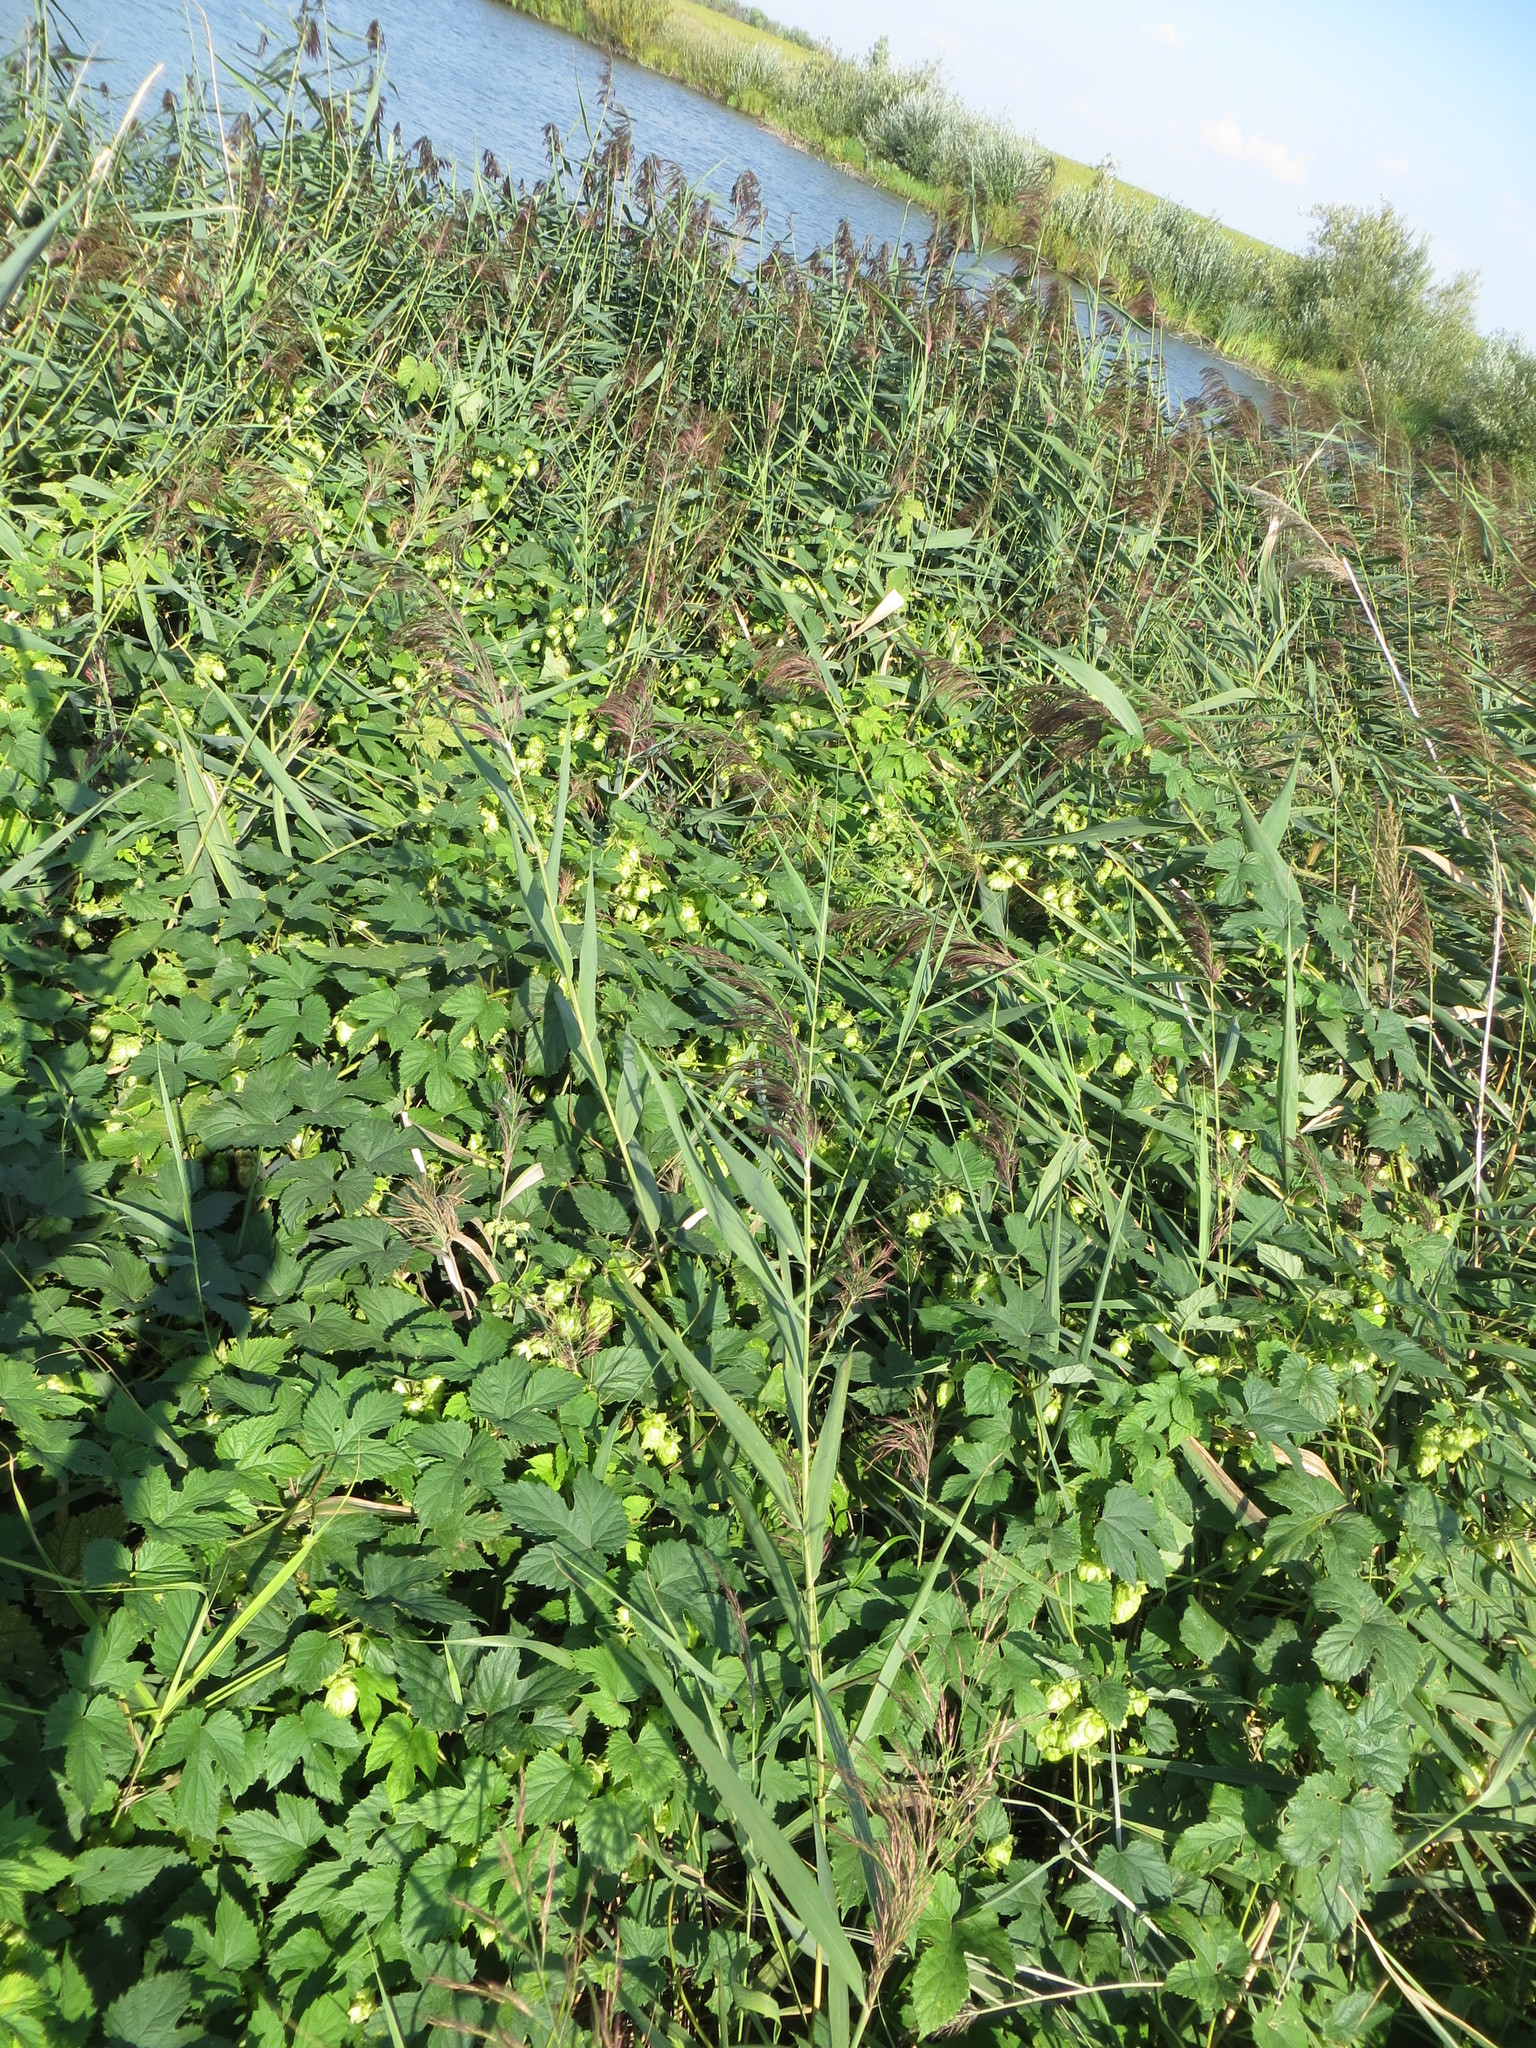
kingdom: Plantae
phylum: Tracheophyta
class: Magnoliopsida
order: Rosales
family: Cannabaceae
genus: Humulus
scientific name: Humulus lupulus
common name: Hop
